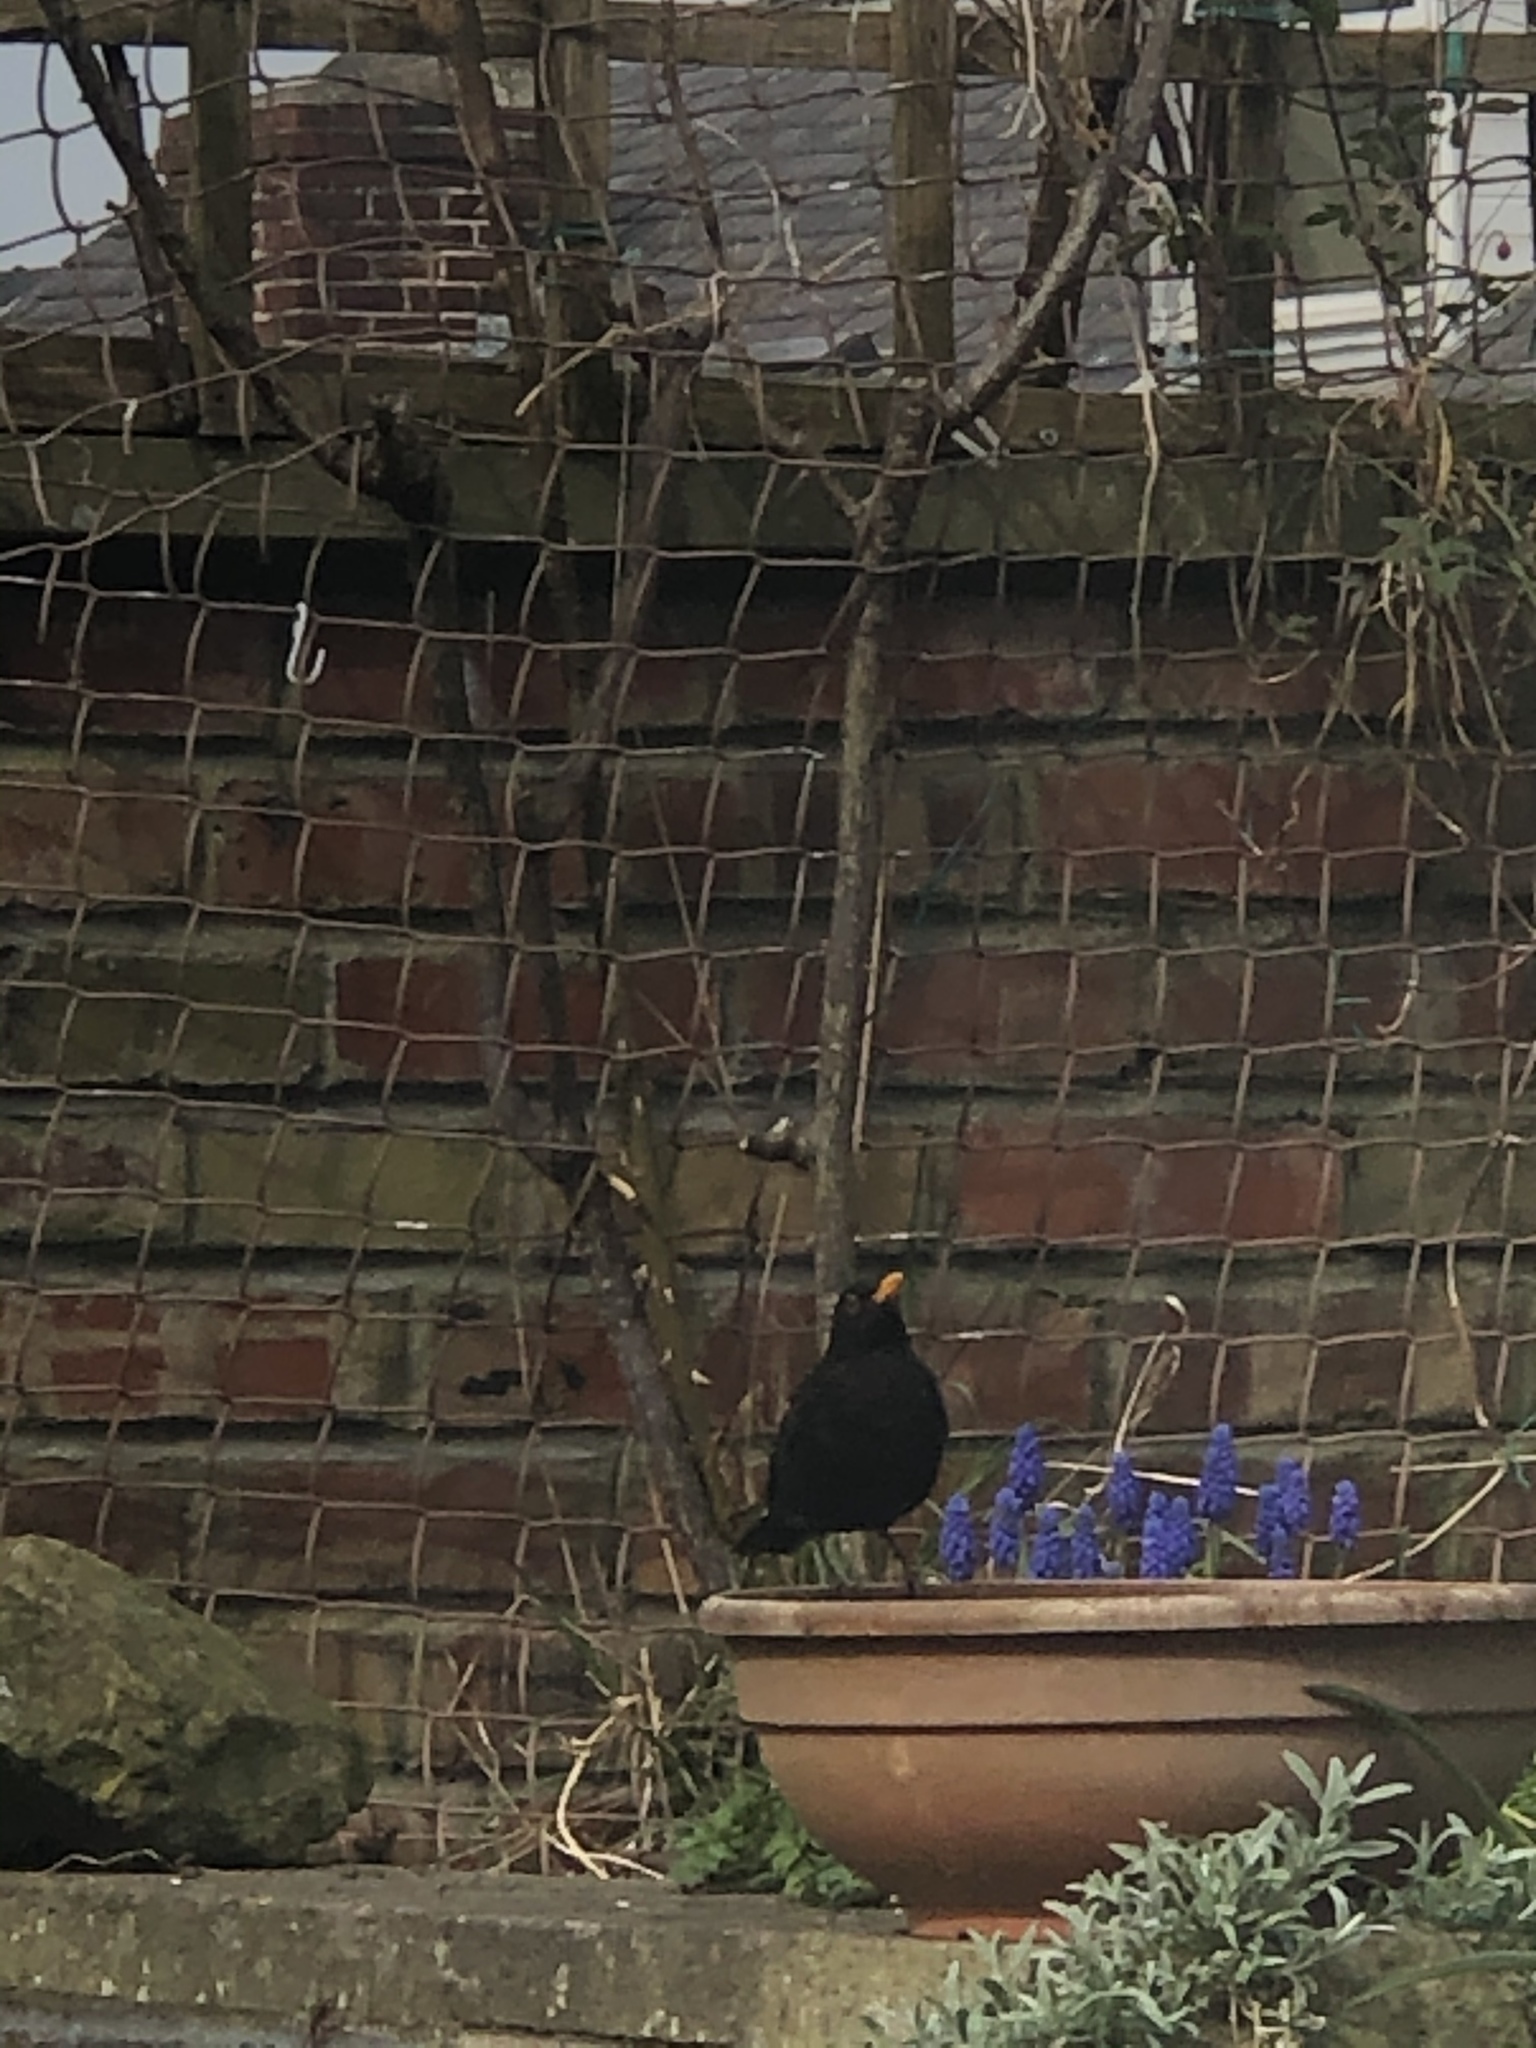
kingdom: Animalia
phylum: Chordata
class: Aves
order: Passeriformes
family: Turdidae
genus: Turdus
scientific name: Turdus merula
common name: Common blackbird
